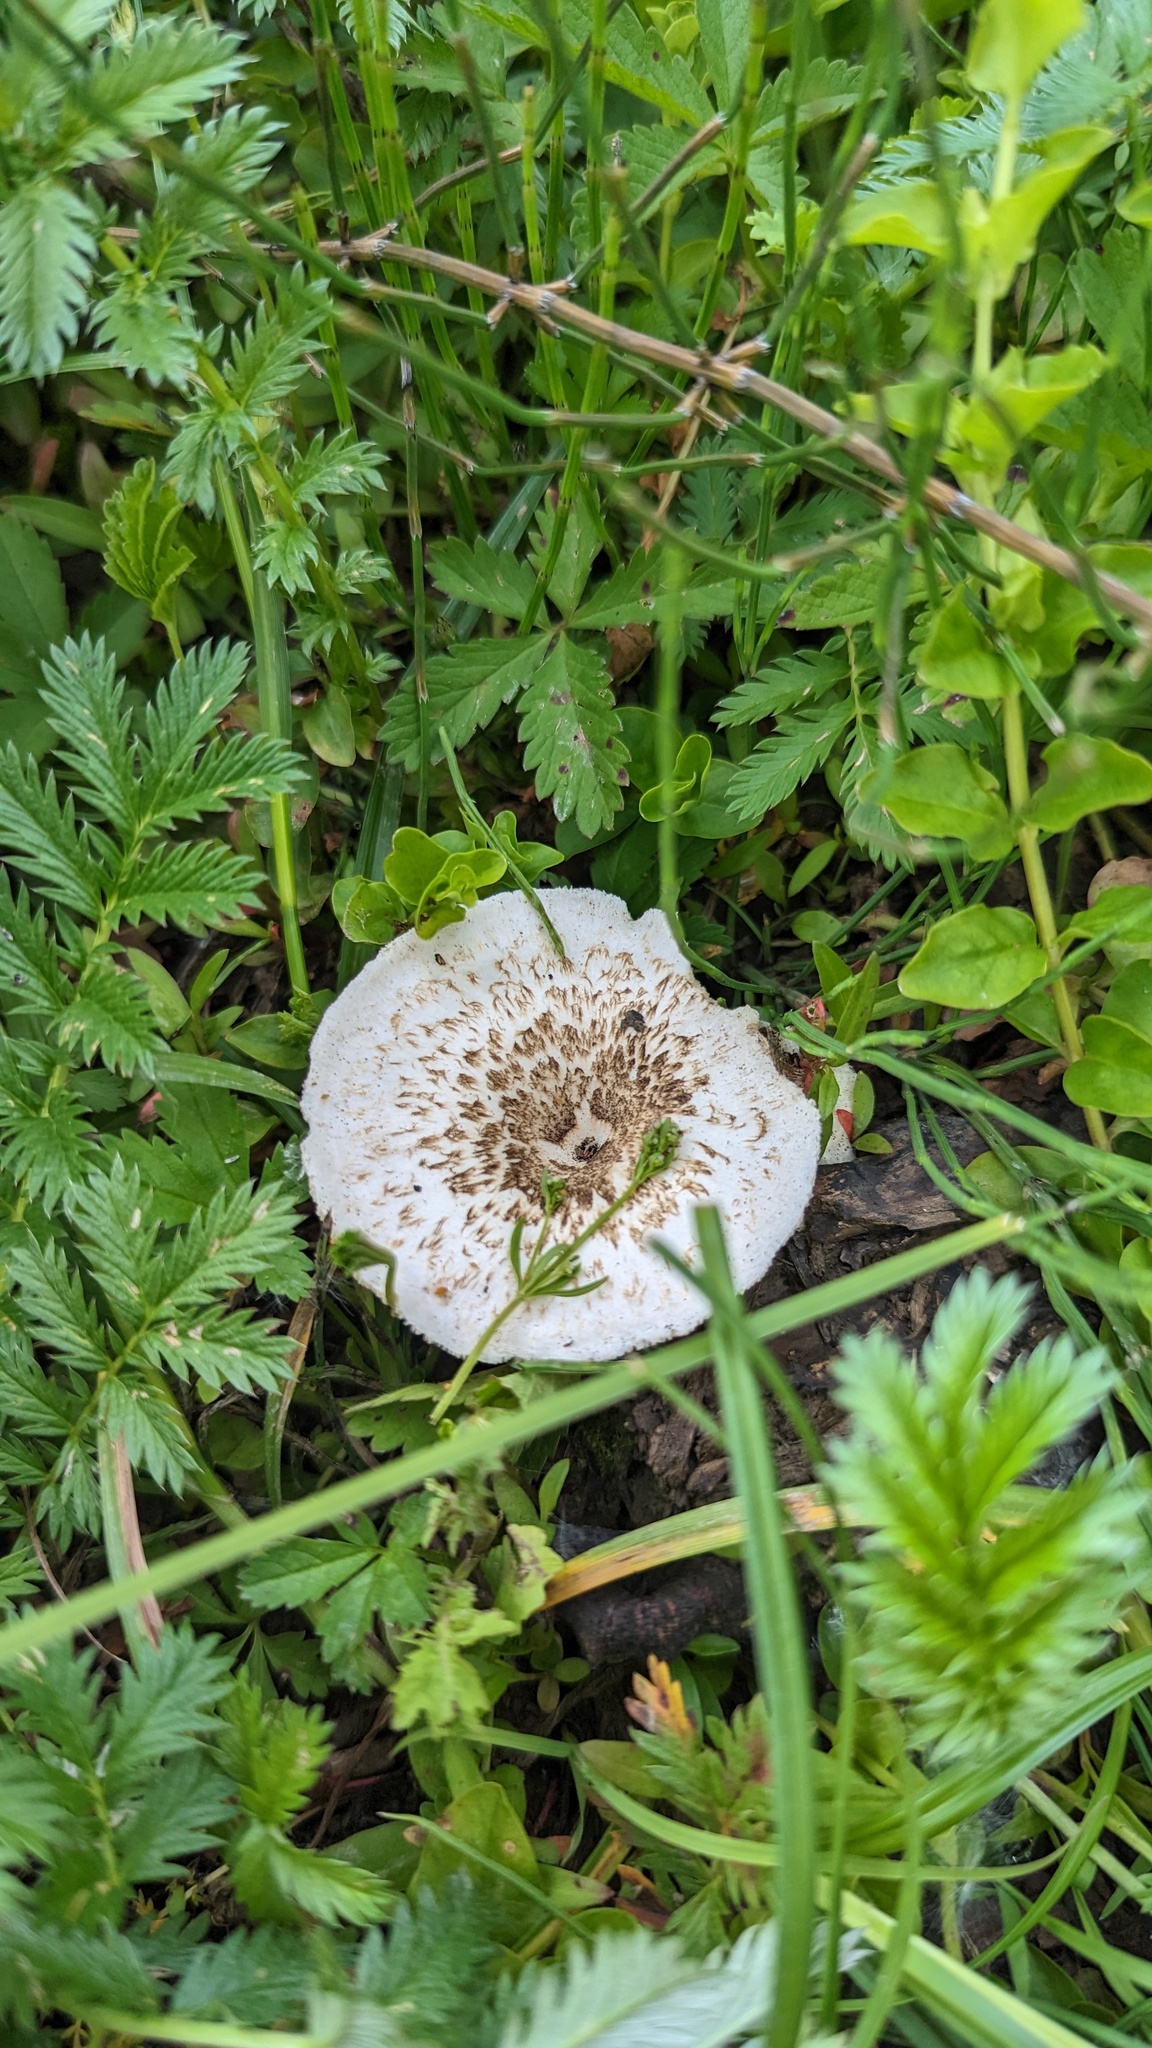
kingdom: Fungi
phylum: Basidiomycota
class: Agaricomycetes
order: Polyporales
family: Polyporaceae
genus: Lentinus
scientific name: Lentinus tigrinus
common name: Tiger sawgill
